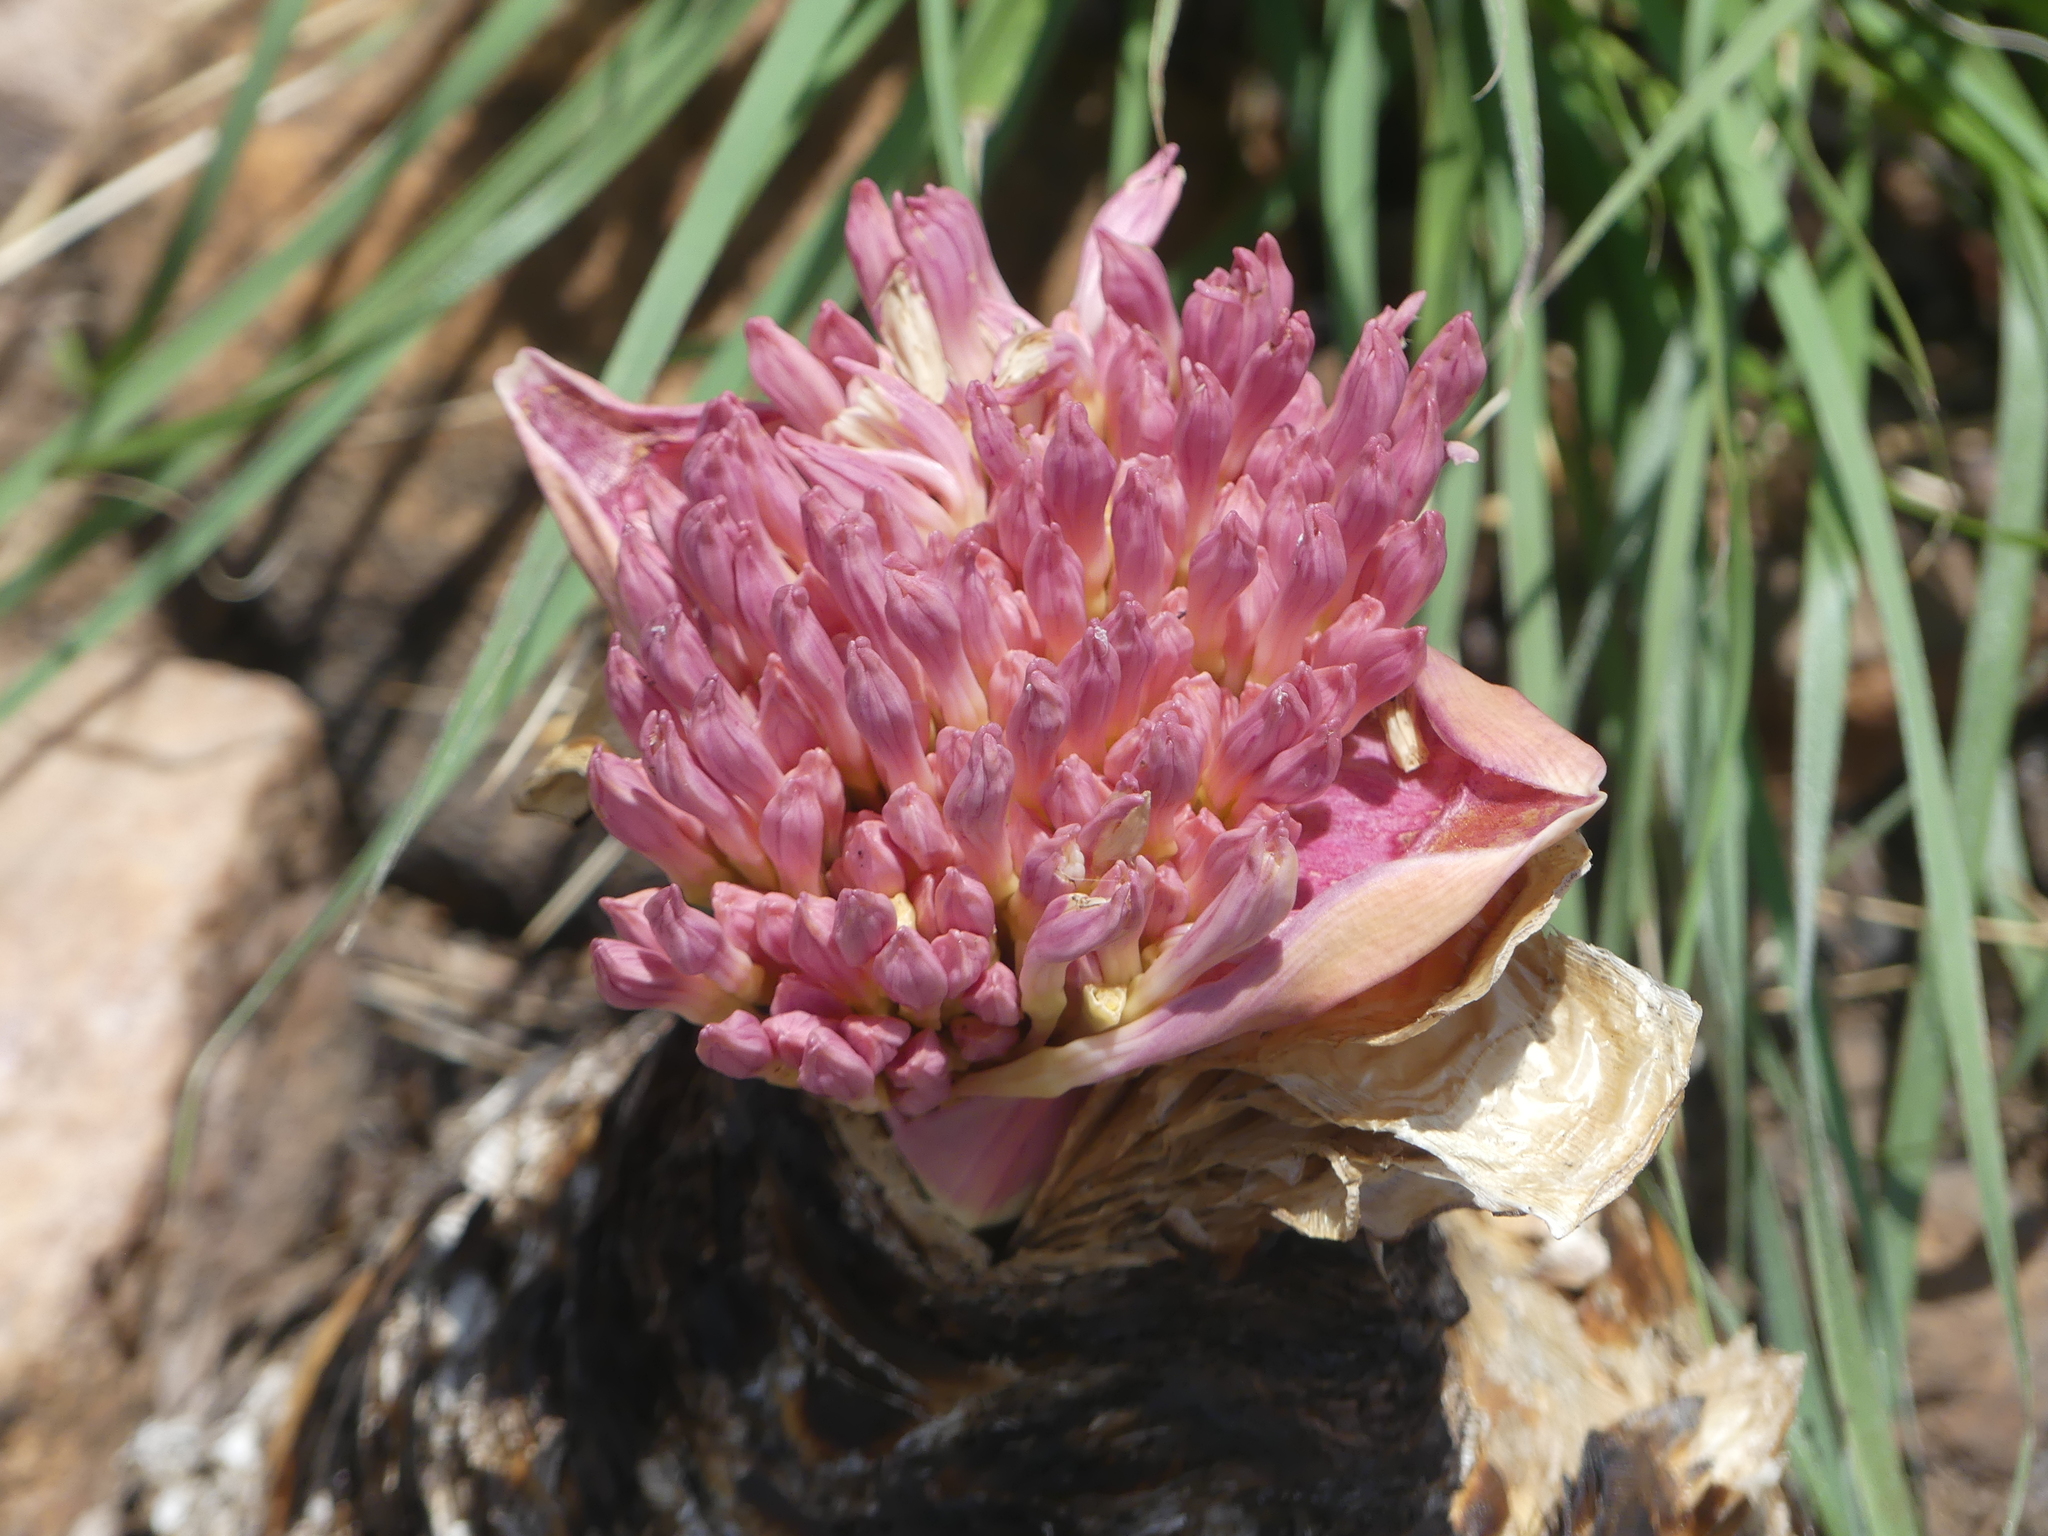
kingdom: Plantae
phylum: Tracheophyta
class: Liliopsida
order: Asparagales
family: Amaryllidaceae
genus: Boophone
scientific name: Boophone disticha
